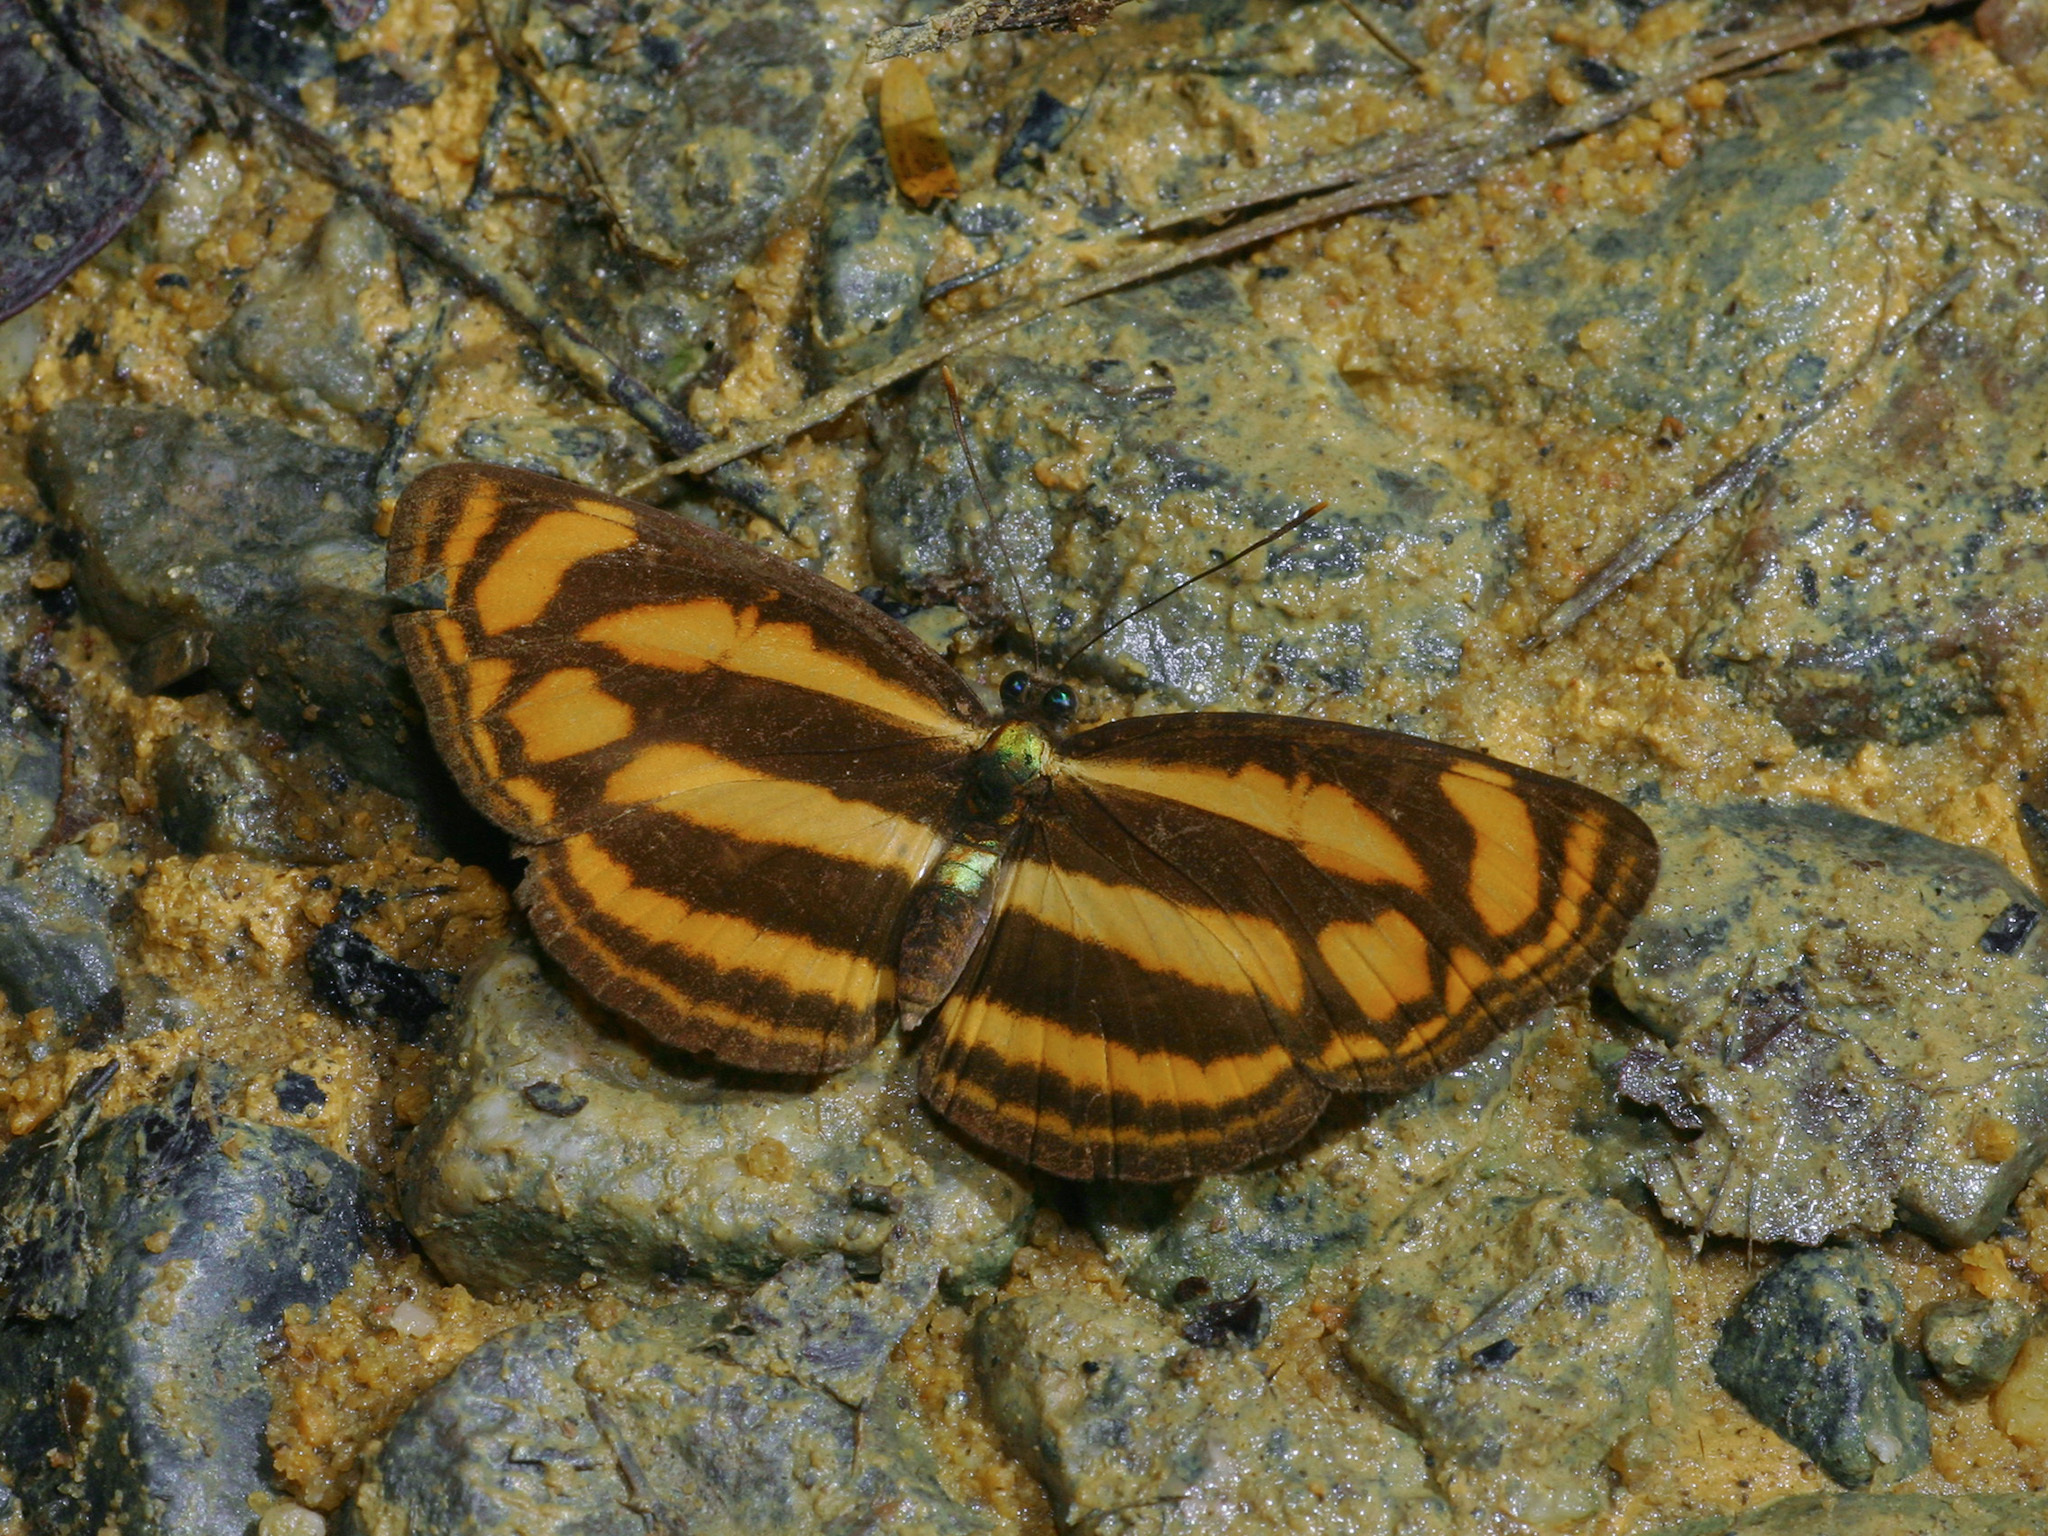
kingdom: Animalia
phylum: Arthropoda
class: Insecta
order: Lepidoptera
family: Nymphalidae
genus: Lasippa
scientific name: Lasippa tiga
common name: Malayan lascar
